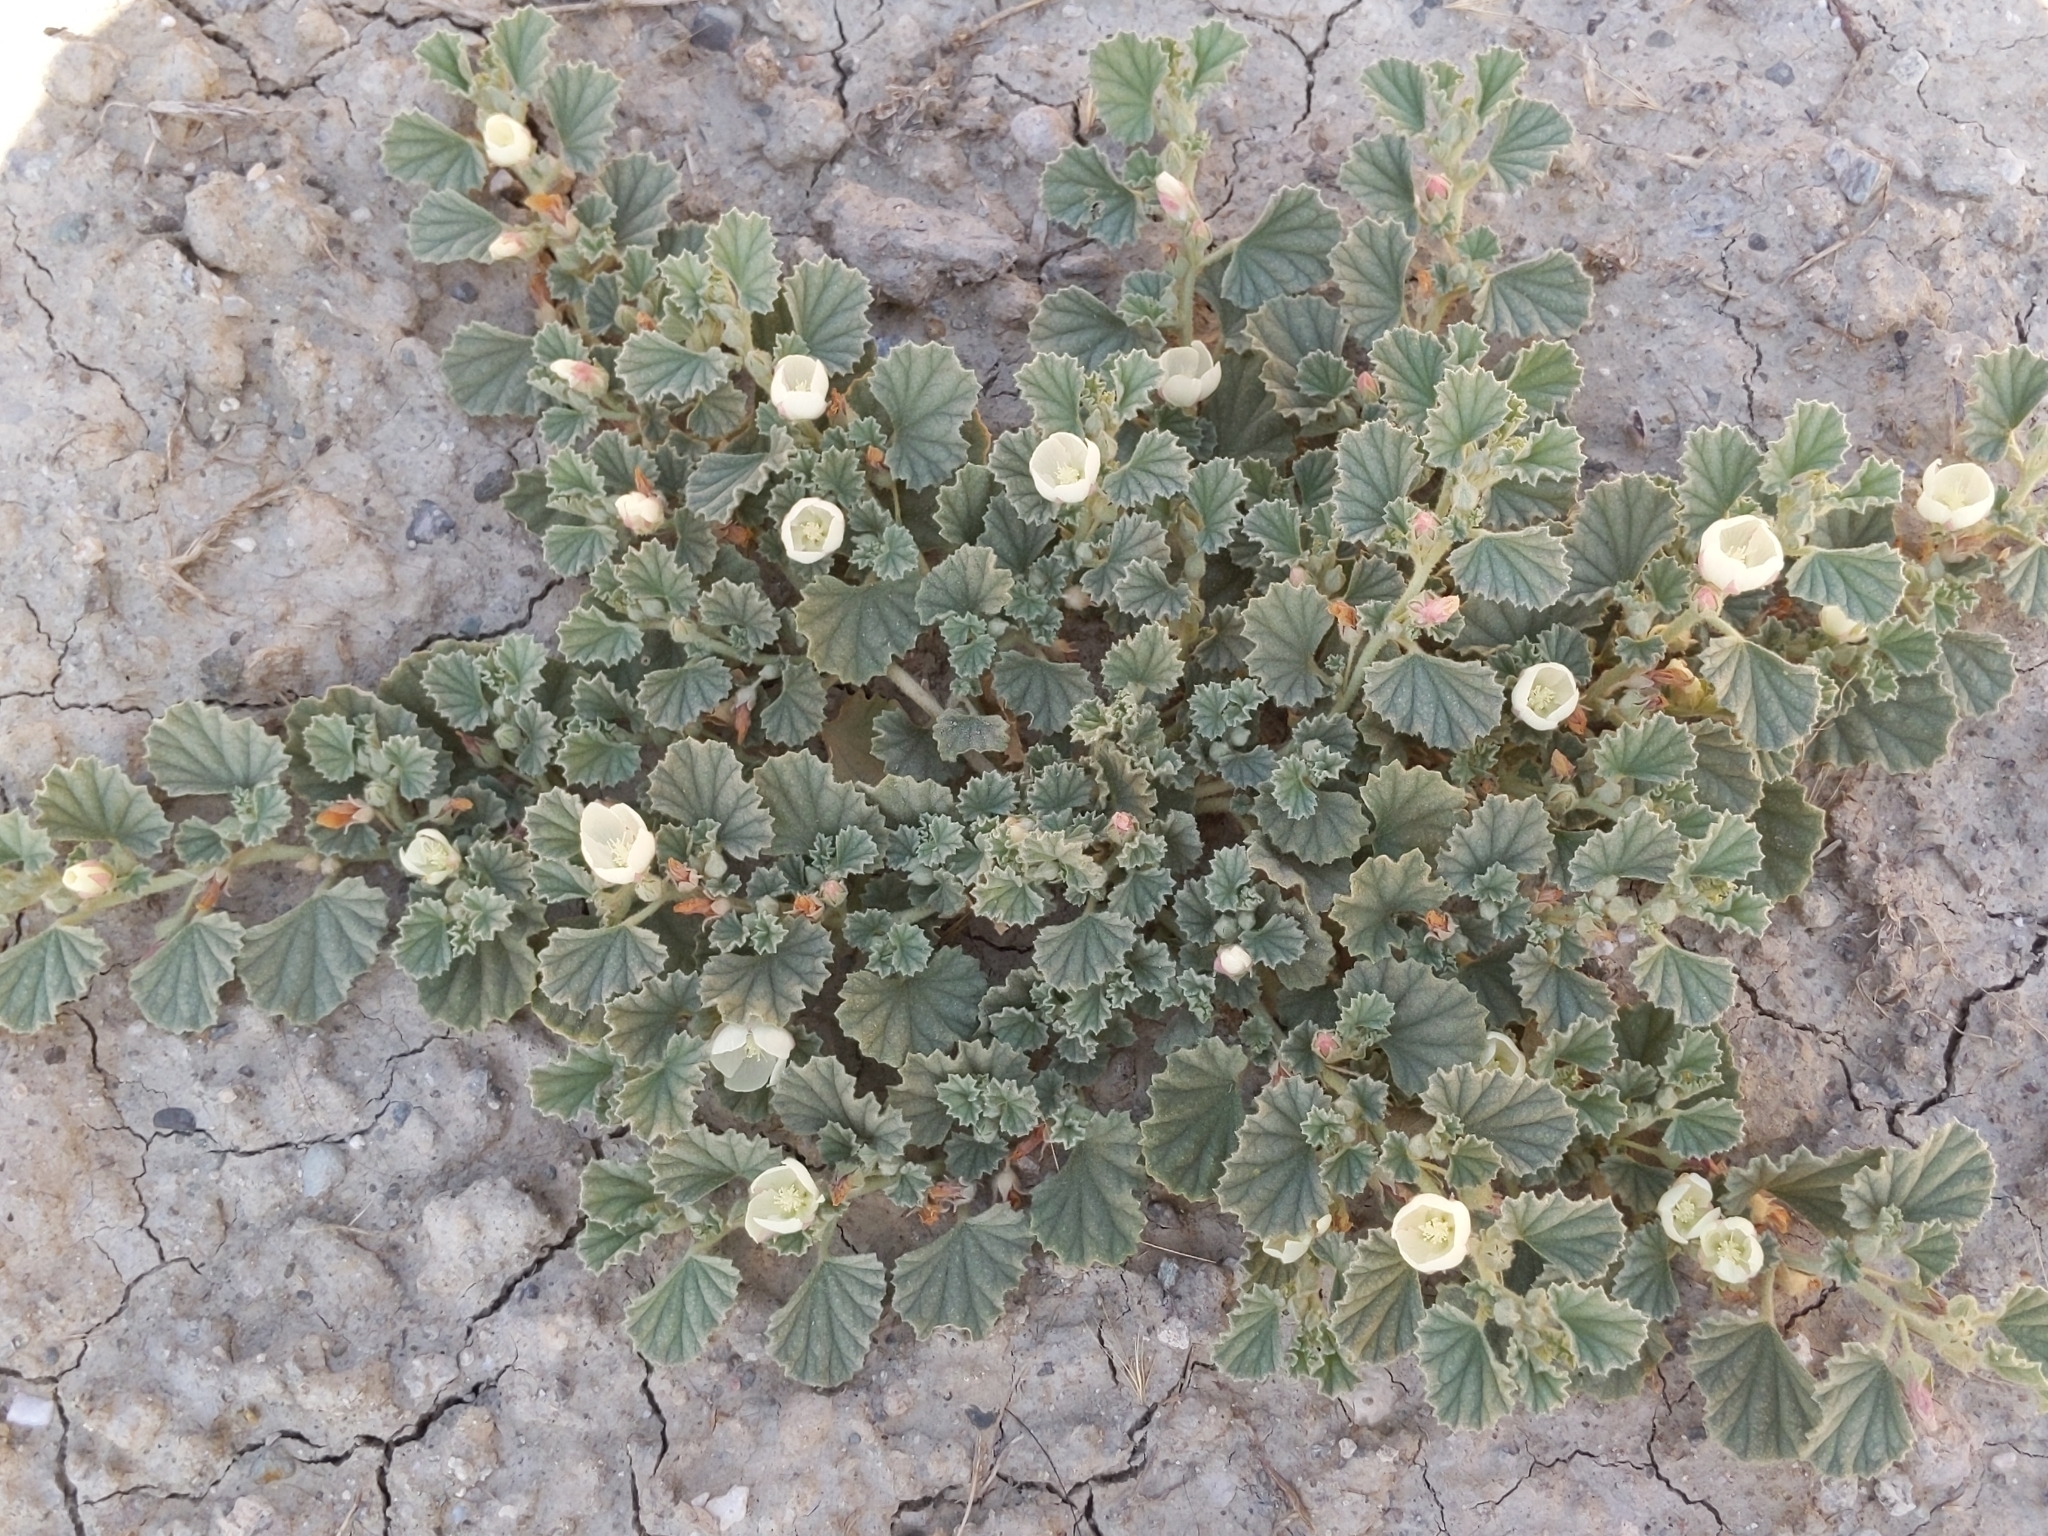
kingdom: Plantae
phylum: Tracheophyta
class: Magnoliopsida
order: Malvales
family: Malvaceae
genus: Malvella
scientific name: Malvella leprosa
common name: Alkali-mallow
